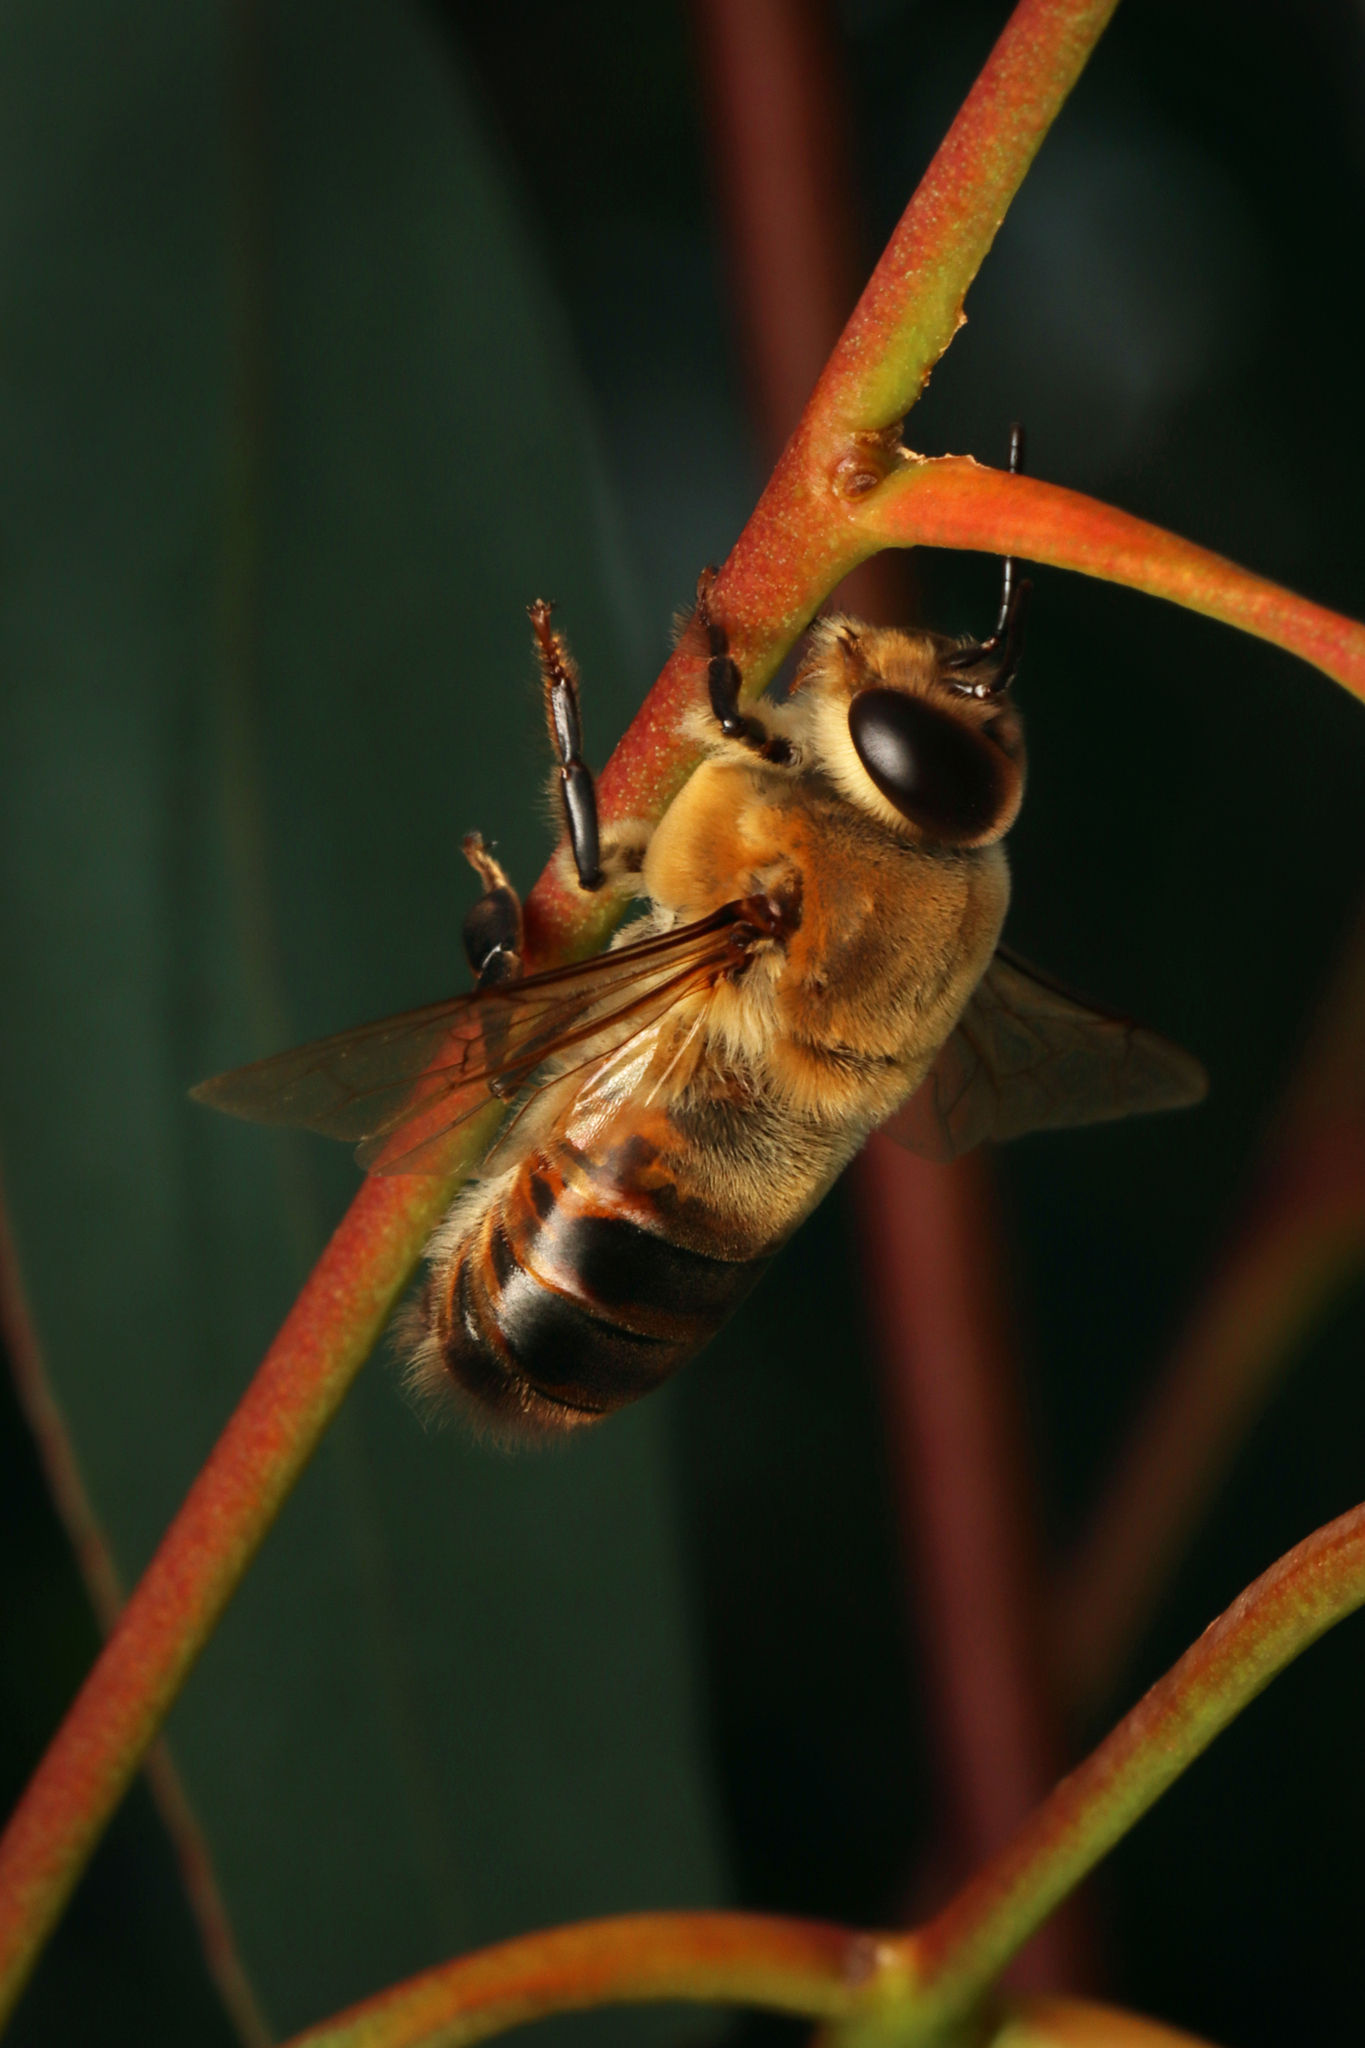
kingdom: Animalia
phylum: Arthropoda
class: Insecta
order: Hymenoptera
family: Apidae
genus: Apis
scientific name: Apis mellifera
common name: Honey bee
